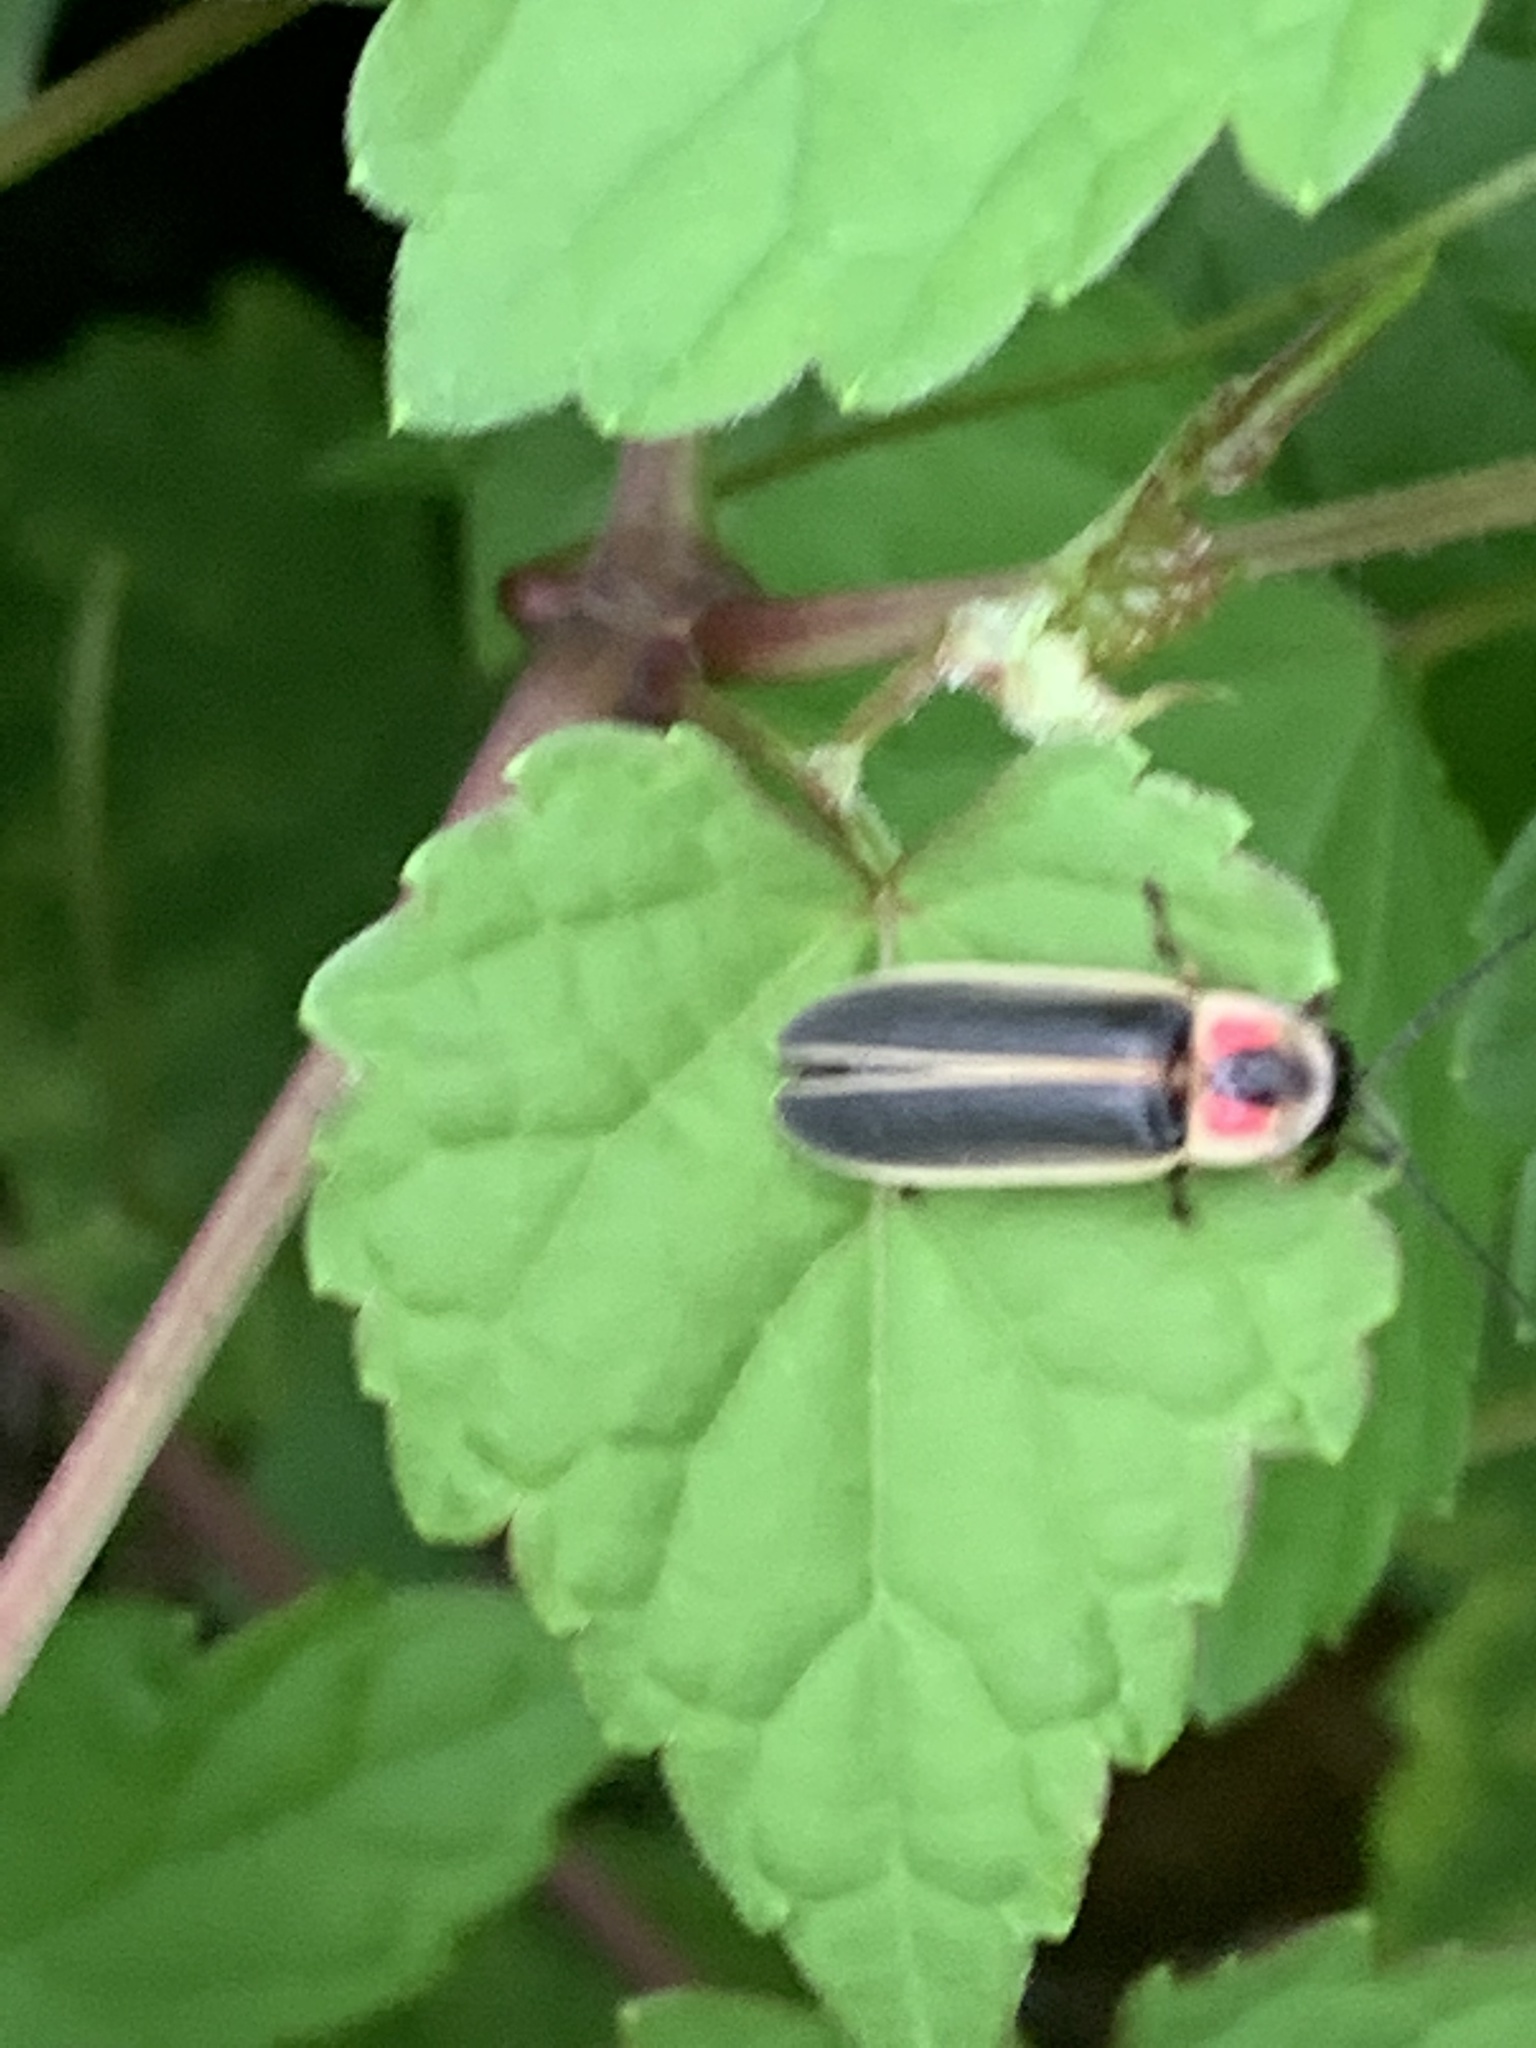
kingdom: Animalia
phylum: Arthropoda
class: Insecta
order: Coleoptera
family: Lampyridae
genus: Photinus
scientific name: Photinus pyralis
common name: Big dipper firefly
